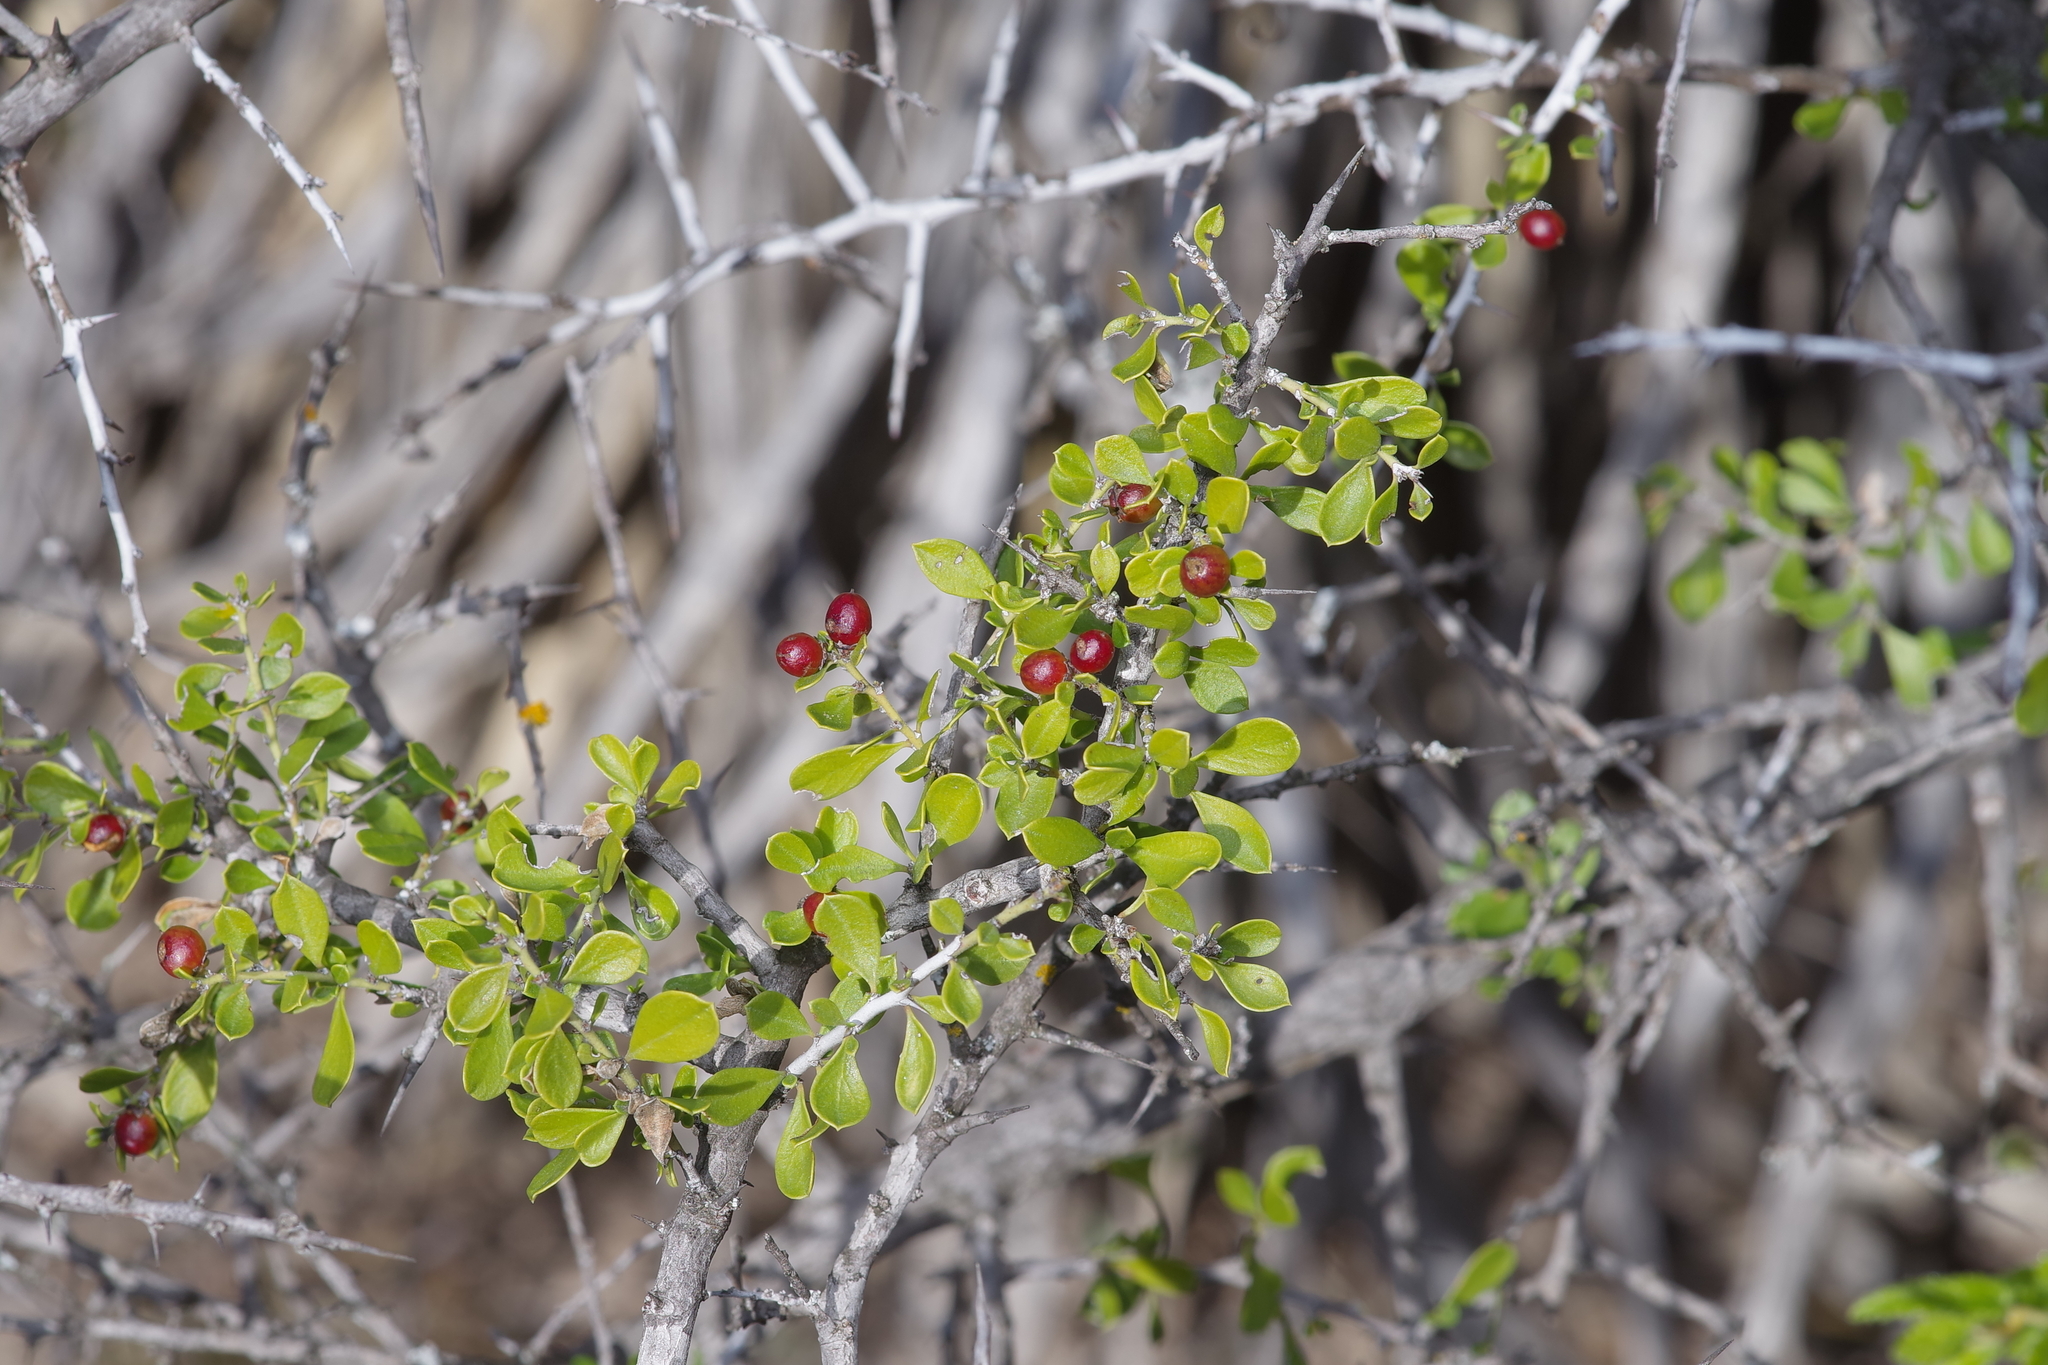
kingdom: Plantae
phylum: Tracheophyta
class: Magnoliopsida
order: Rosales
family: Rhamnaceae
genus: Condalia
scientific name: Condalia viridis
